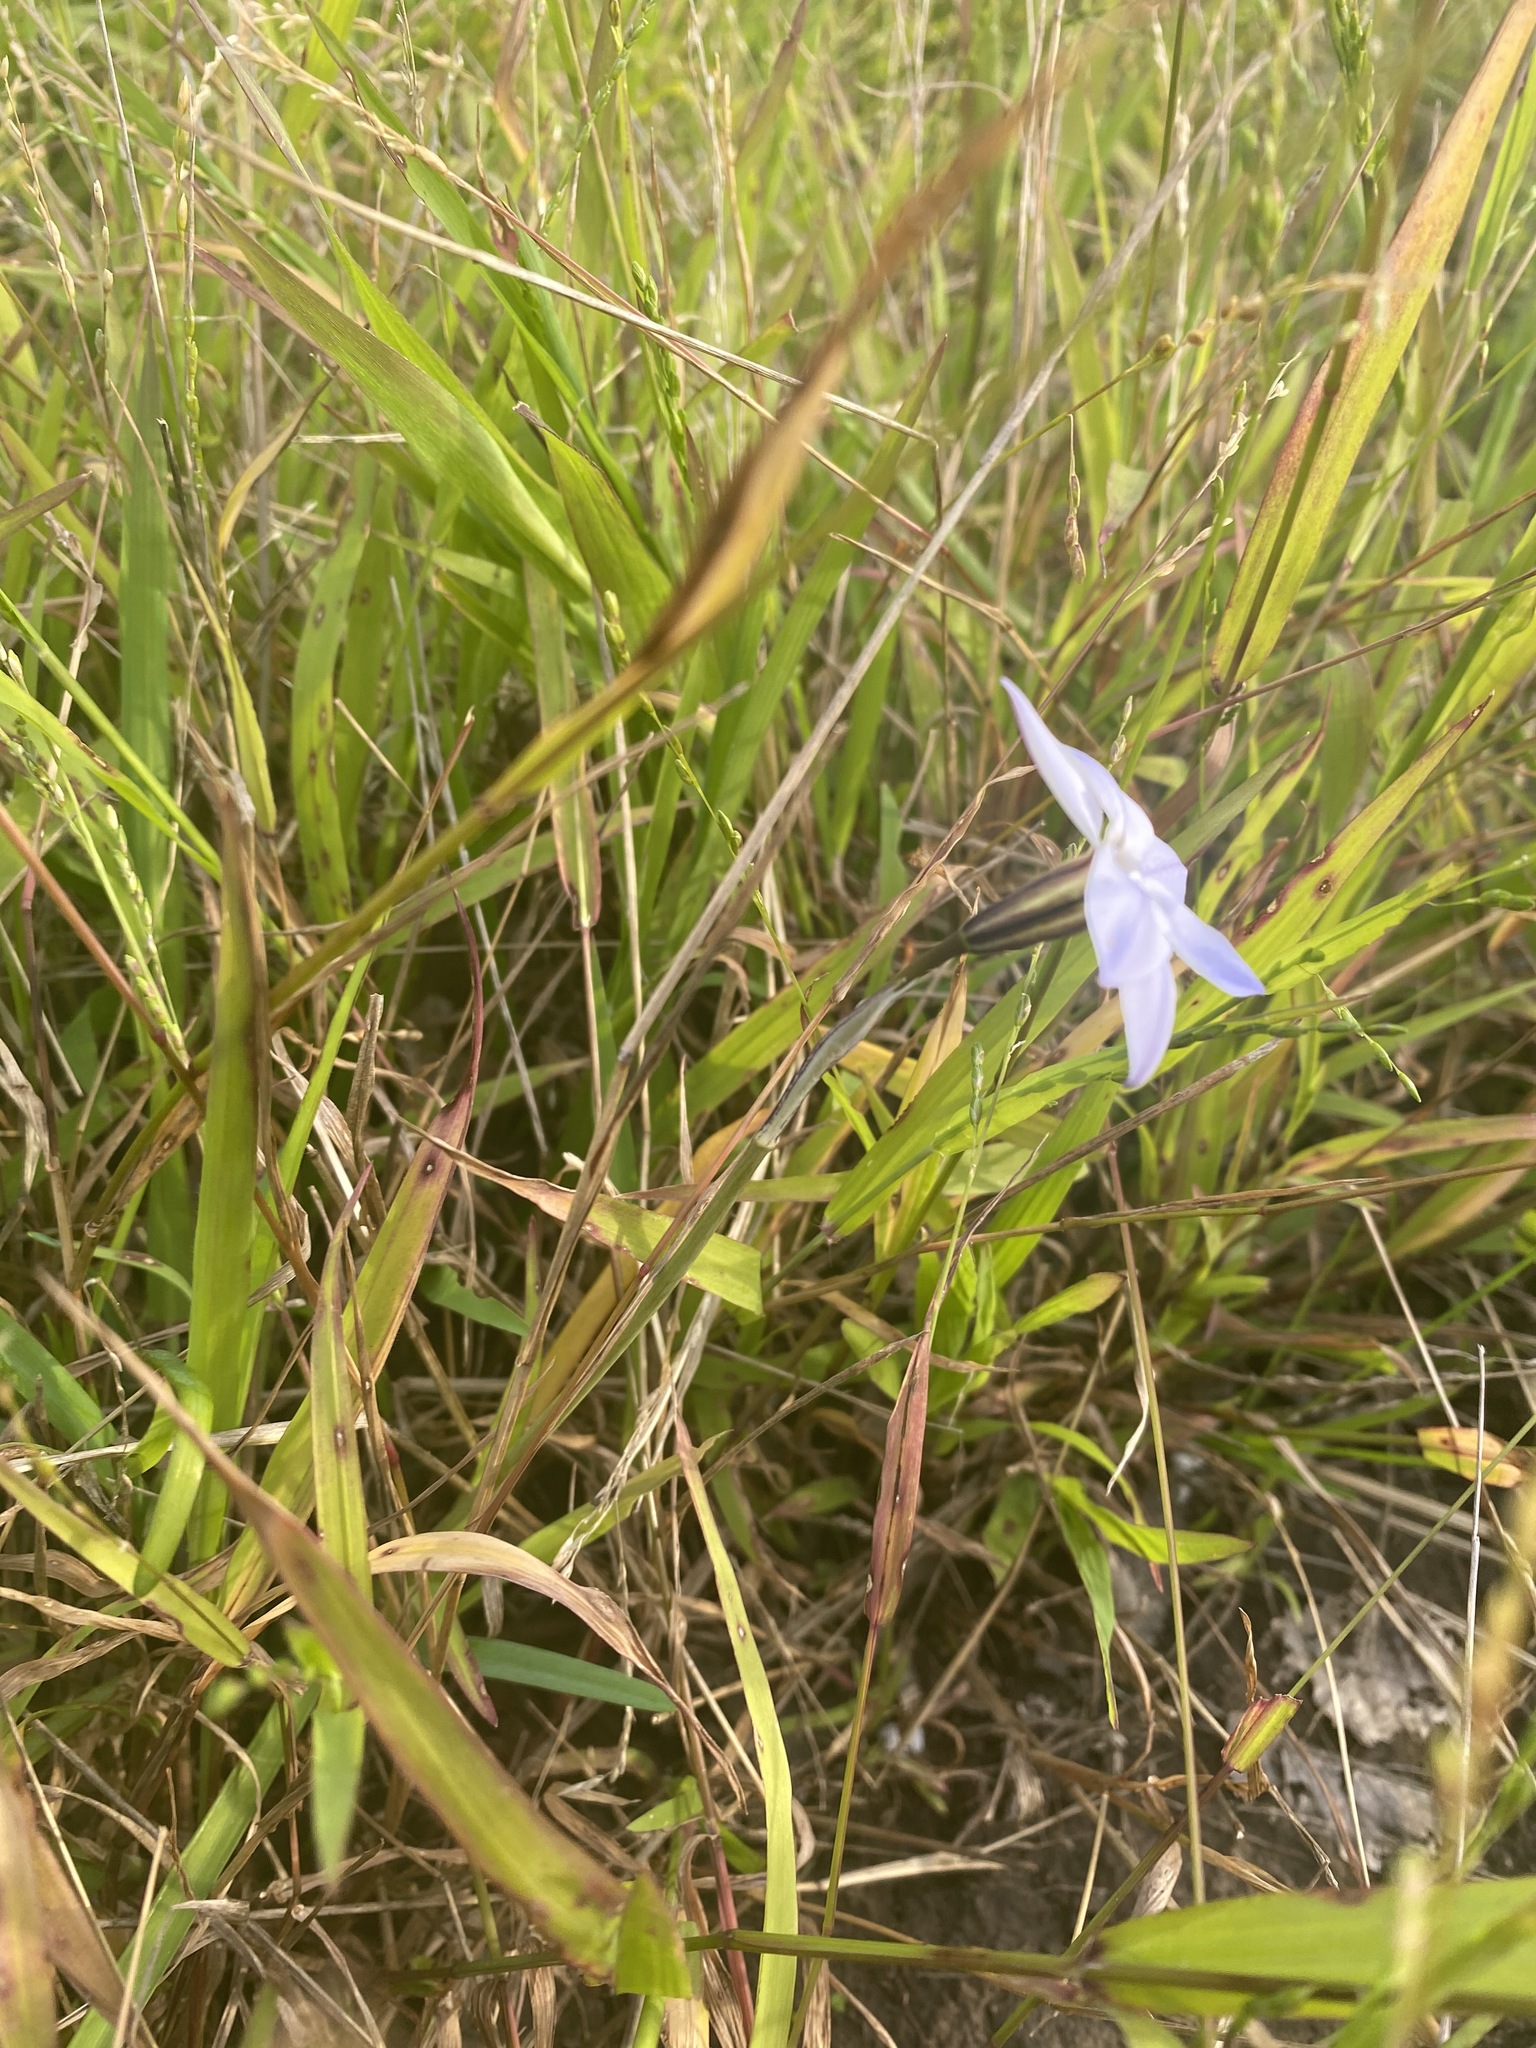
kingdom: Plantae
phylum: Tracheophyta
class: Liliopsida
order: Asparagales
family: Amaryllidaceae
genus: Ipheion
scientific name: Ipheion uniflorum
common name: Spring starflower
